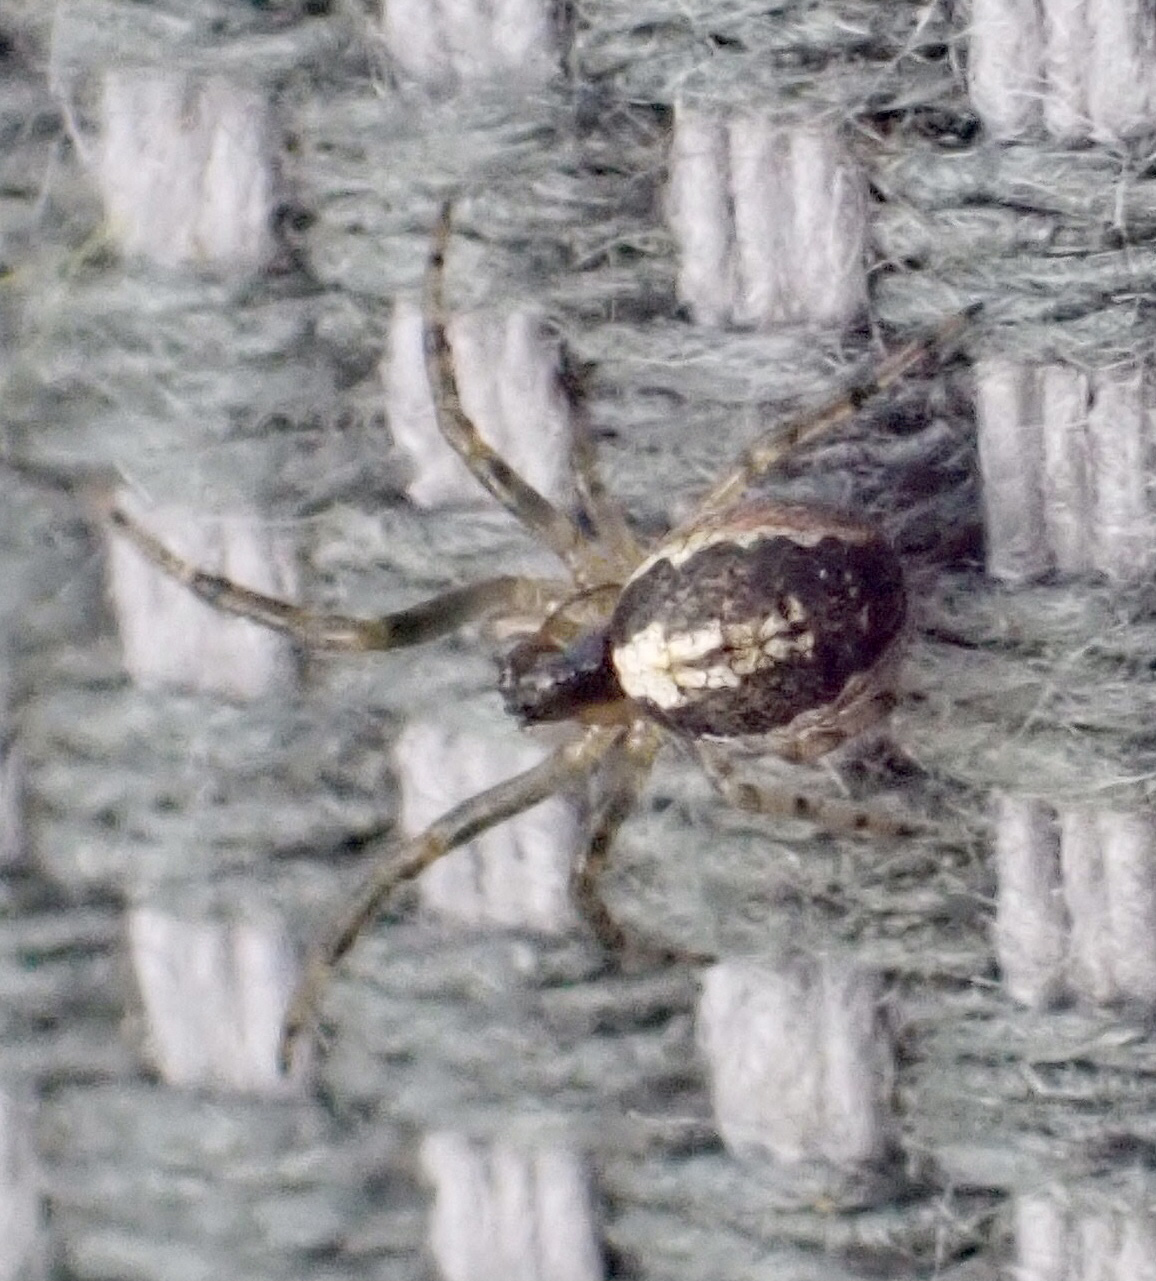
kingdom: Animalia
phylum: Arthropoda
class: Arachnida
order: Araneae
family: Araneidae
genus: Zygiella
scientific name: Zygiella x-notata
